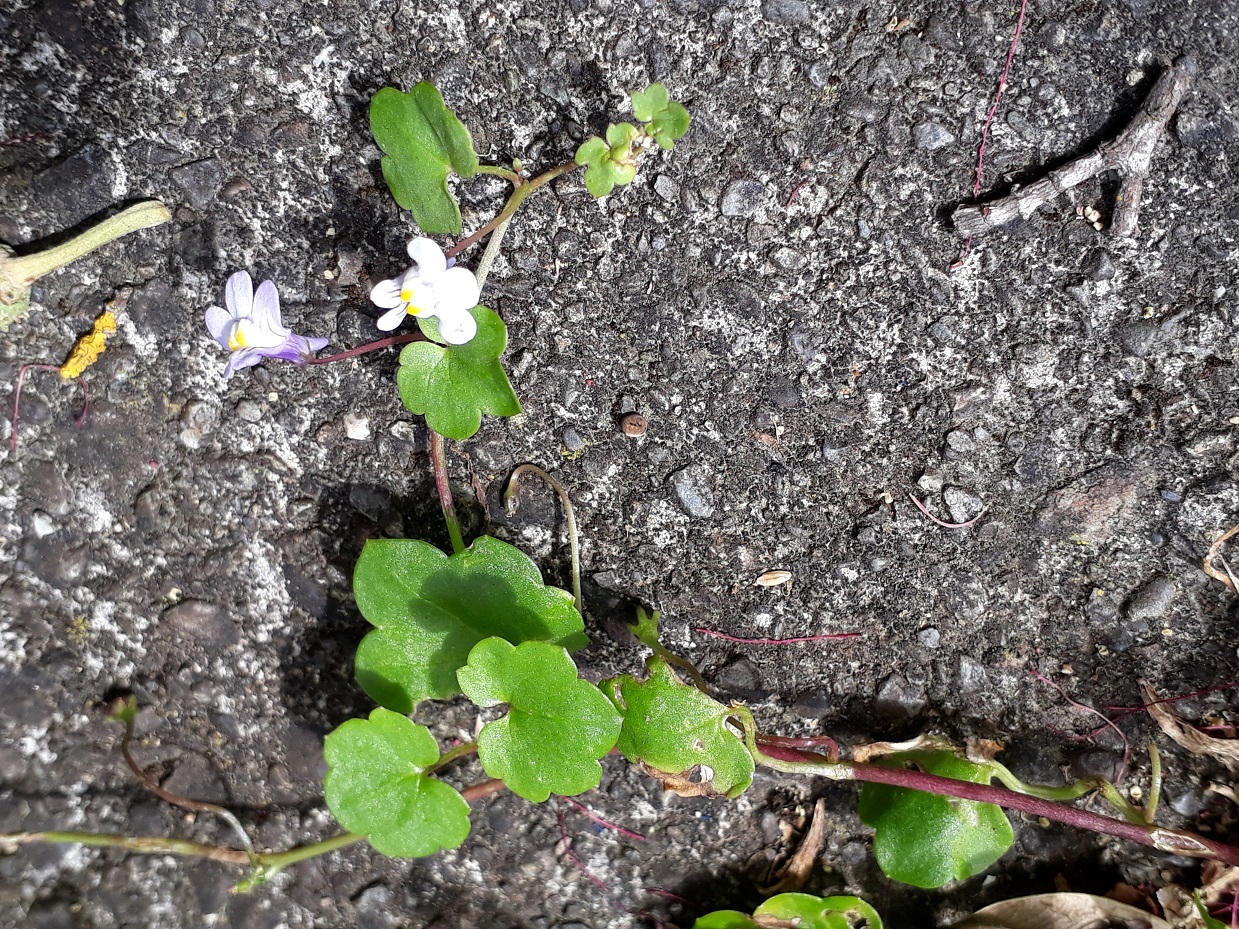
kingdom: Plantae
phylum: Tracheophyta
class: Magnoliopsida
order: Lamiales
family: Plantaginaceae
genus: Cymbalaria
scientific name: Cymbalaria muralis
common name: Ivy-leaved toadflax
